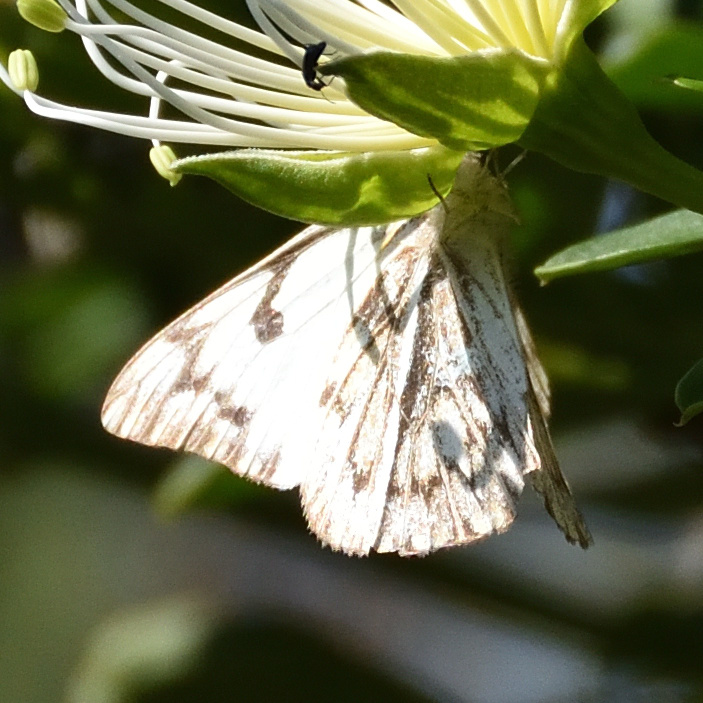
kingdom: Animalia
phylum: Arthropoda
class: Insecta
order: Lepidoptera
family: Pieridae
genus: Belenois
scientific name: Belenois gidica
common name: Pointed caper white
